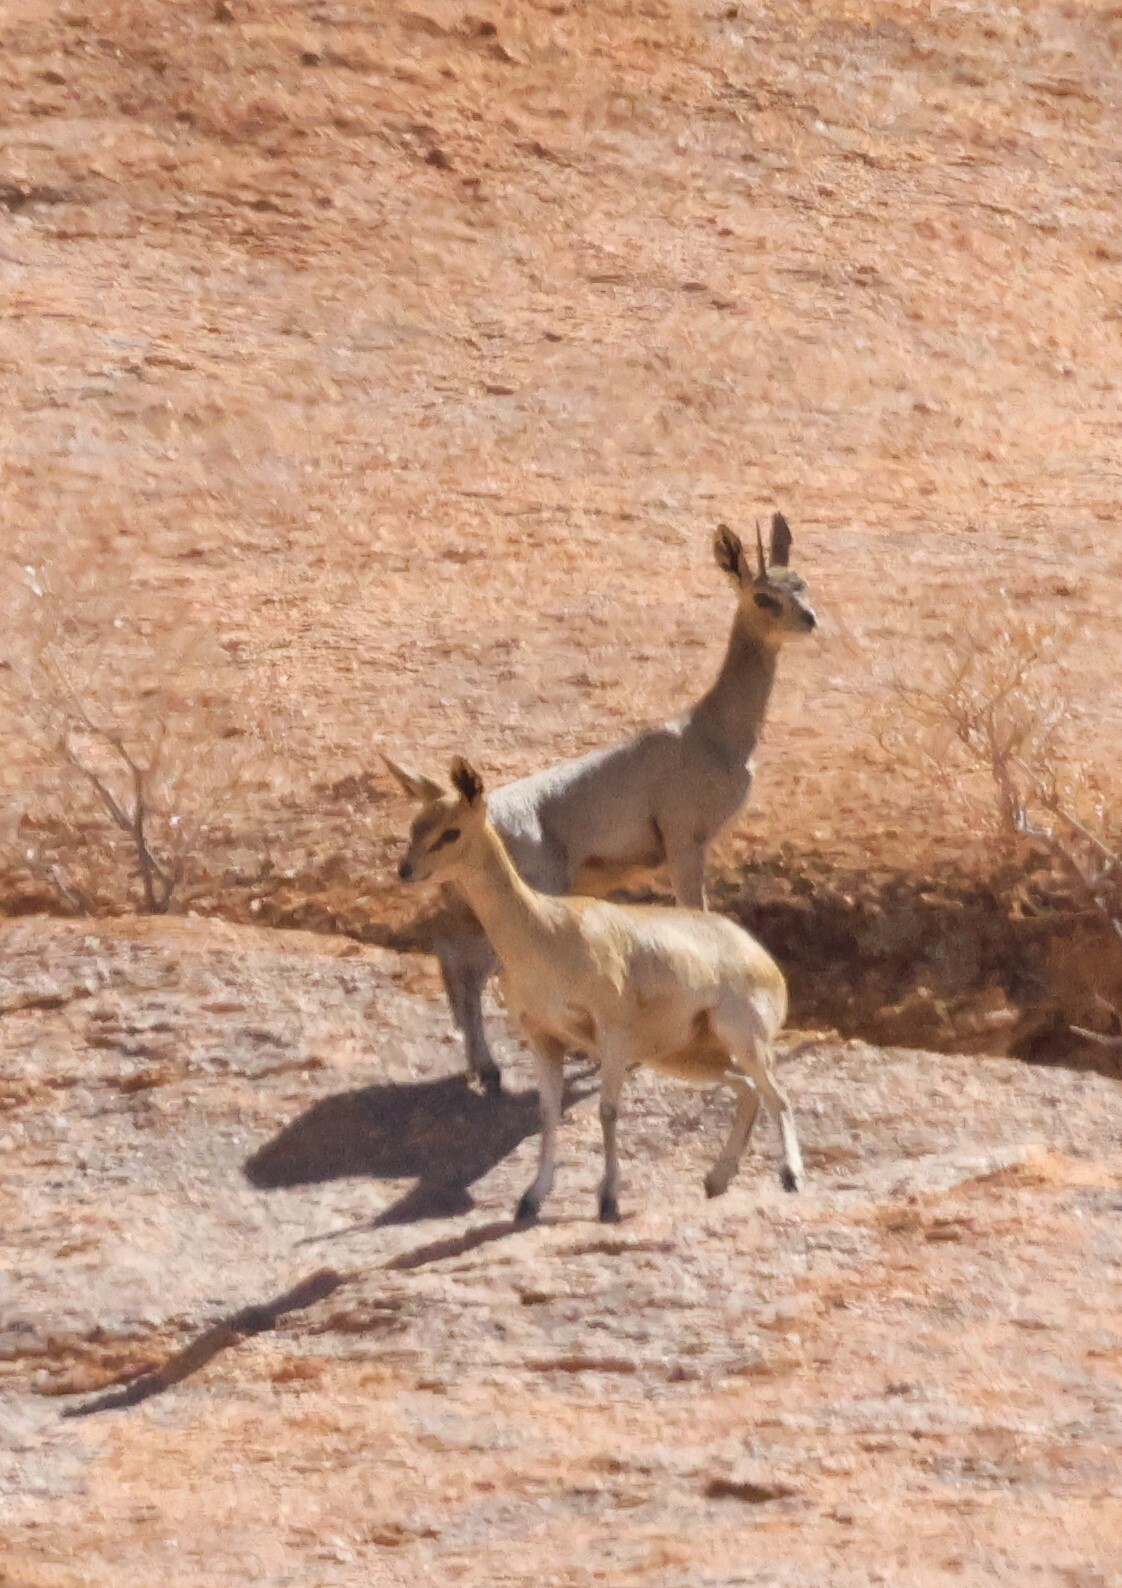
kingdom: Animalia
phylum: Chordata
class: Mammalia
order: Artiodactyla
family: Bovidae
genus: Oreotragus
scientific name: Oreotragus oreotragus
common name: Klipspringer
